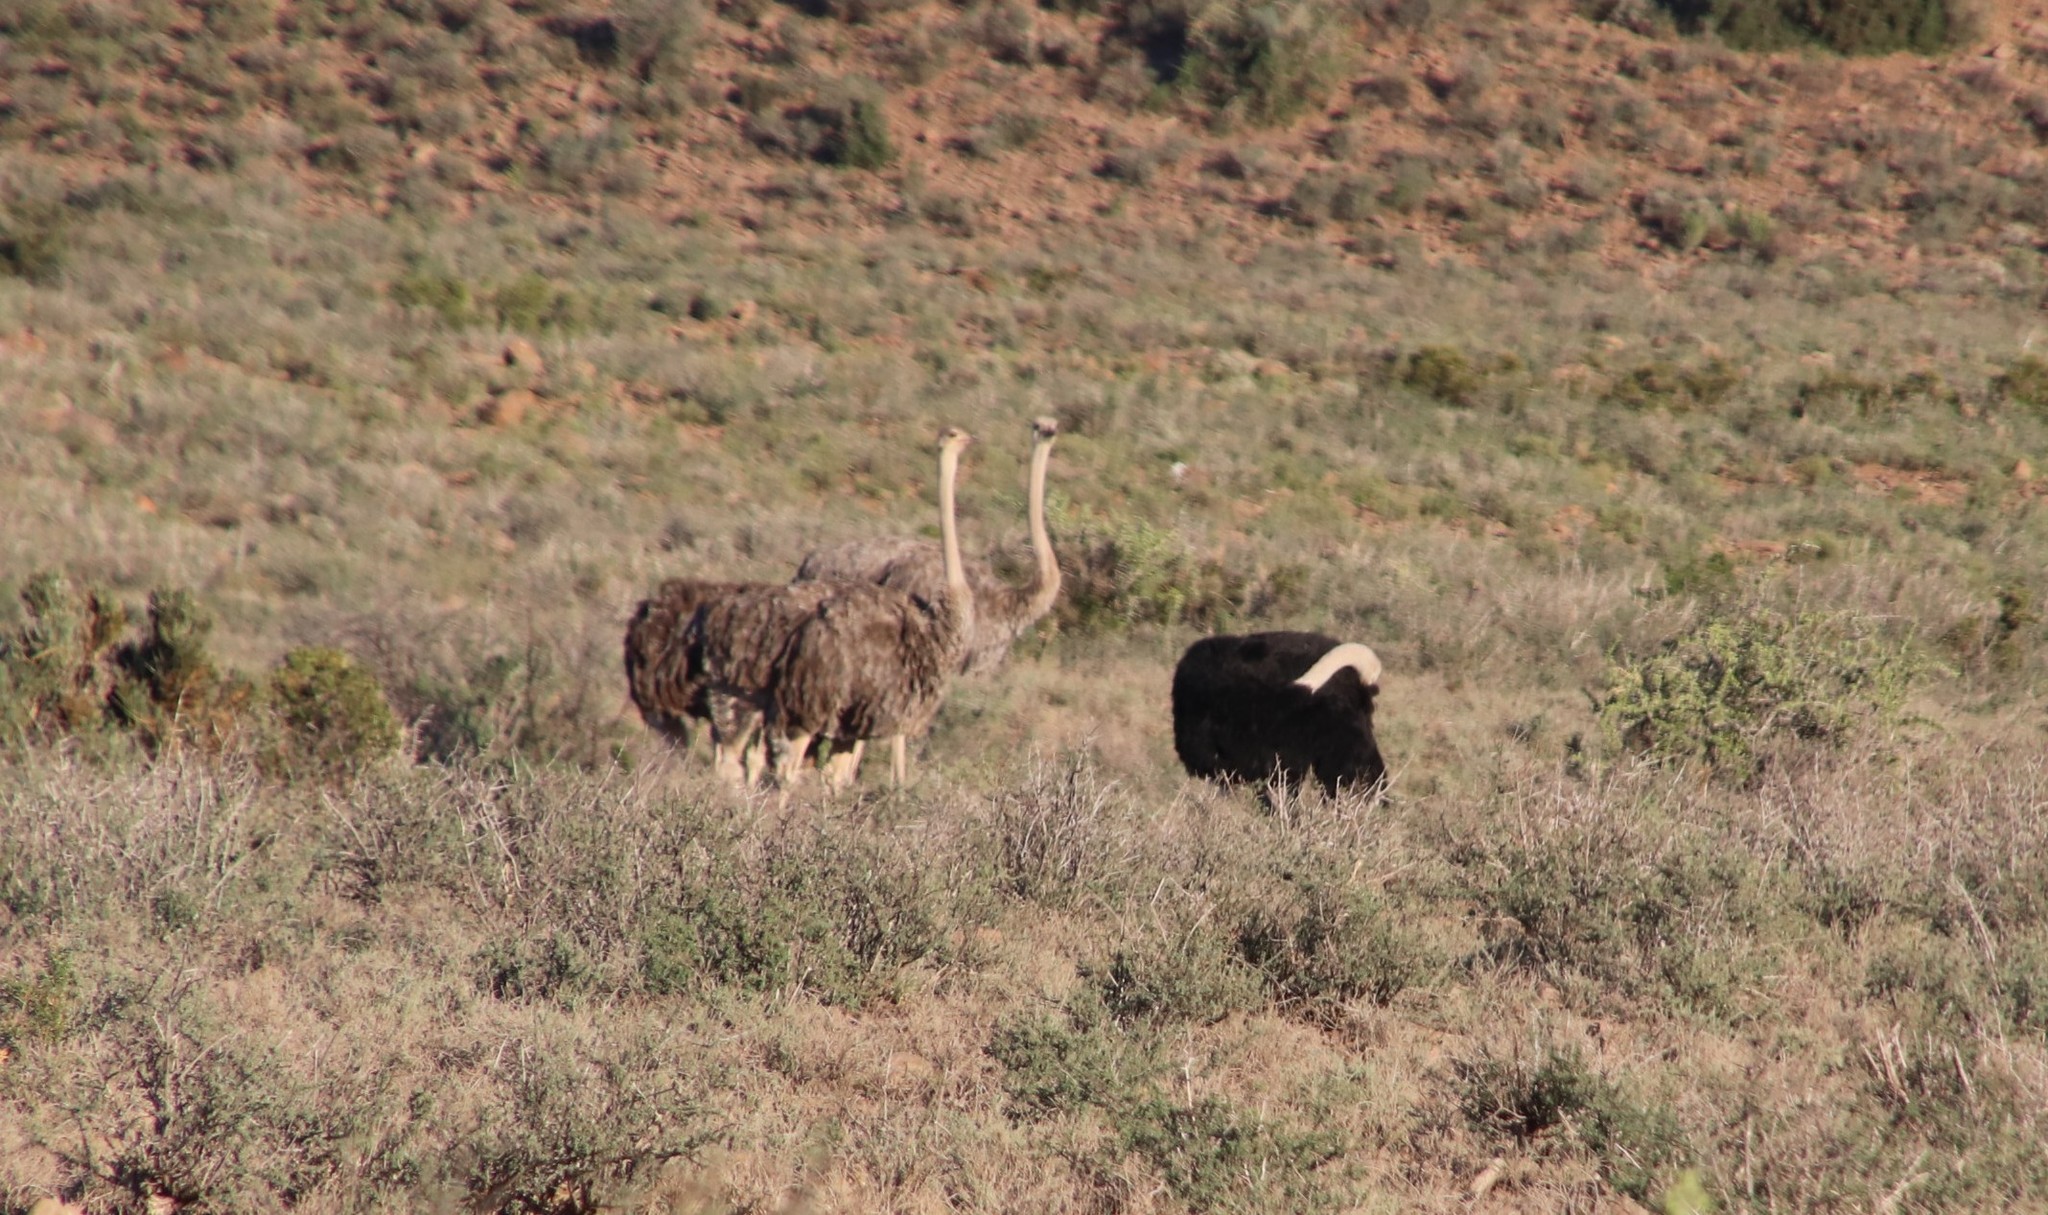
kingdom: Animalia
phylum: Chordata
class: Aves
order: Struthioniformes
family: Struthionidae
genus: Struthio
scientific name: Struthio camelus
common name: Common ostrich
